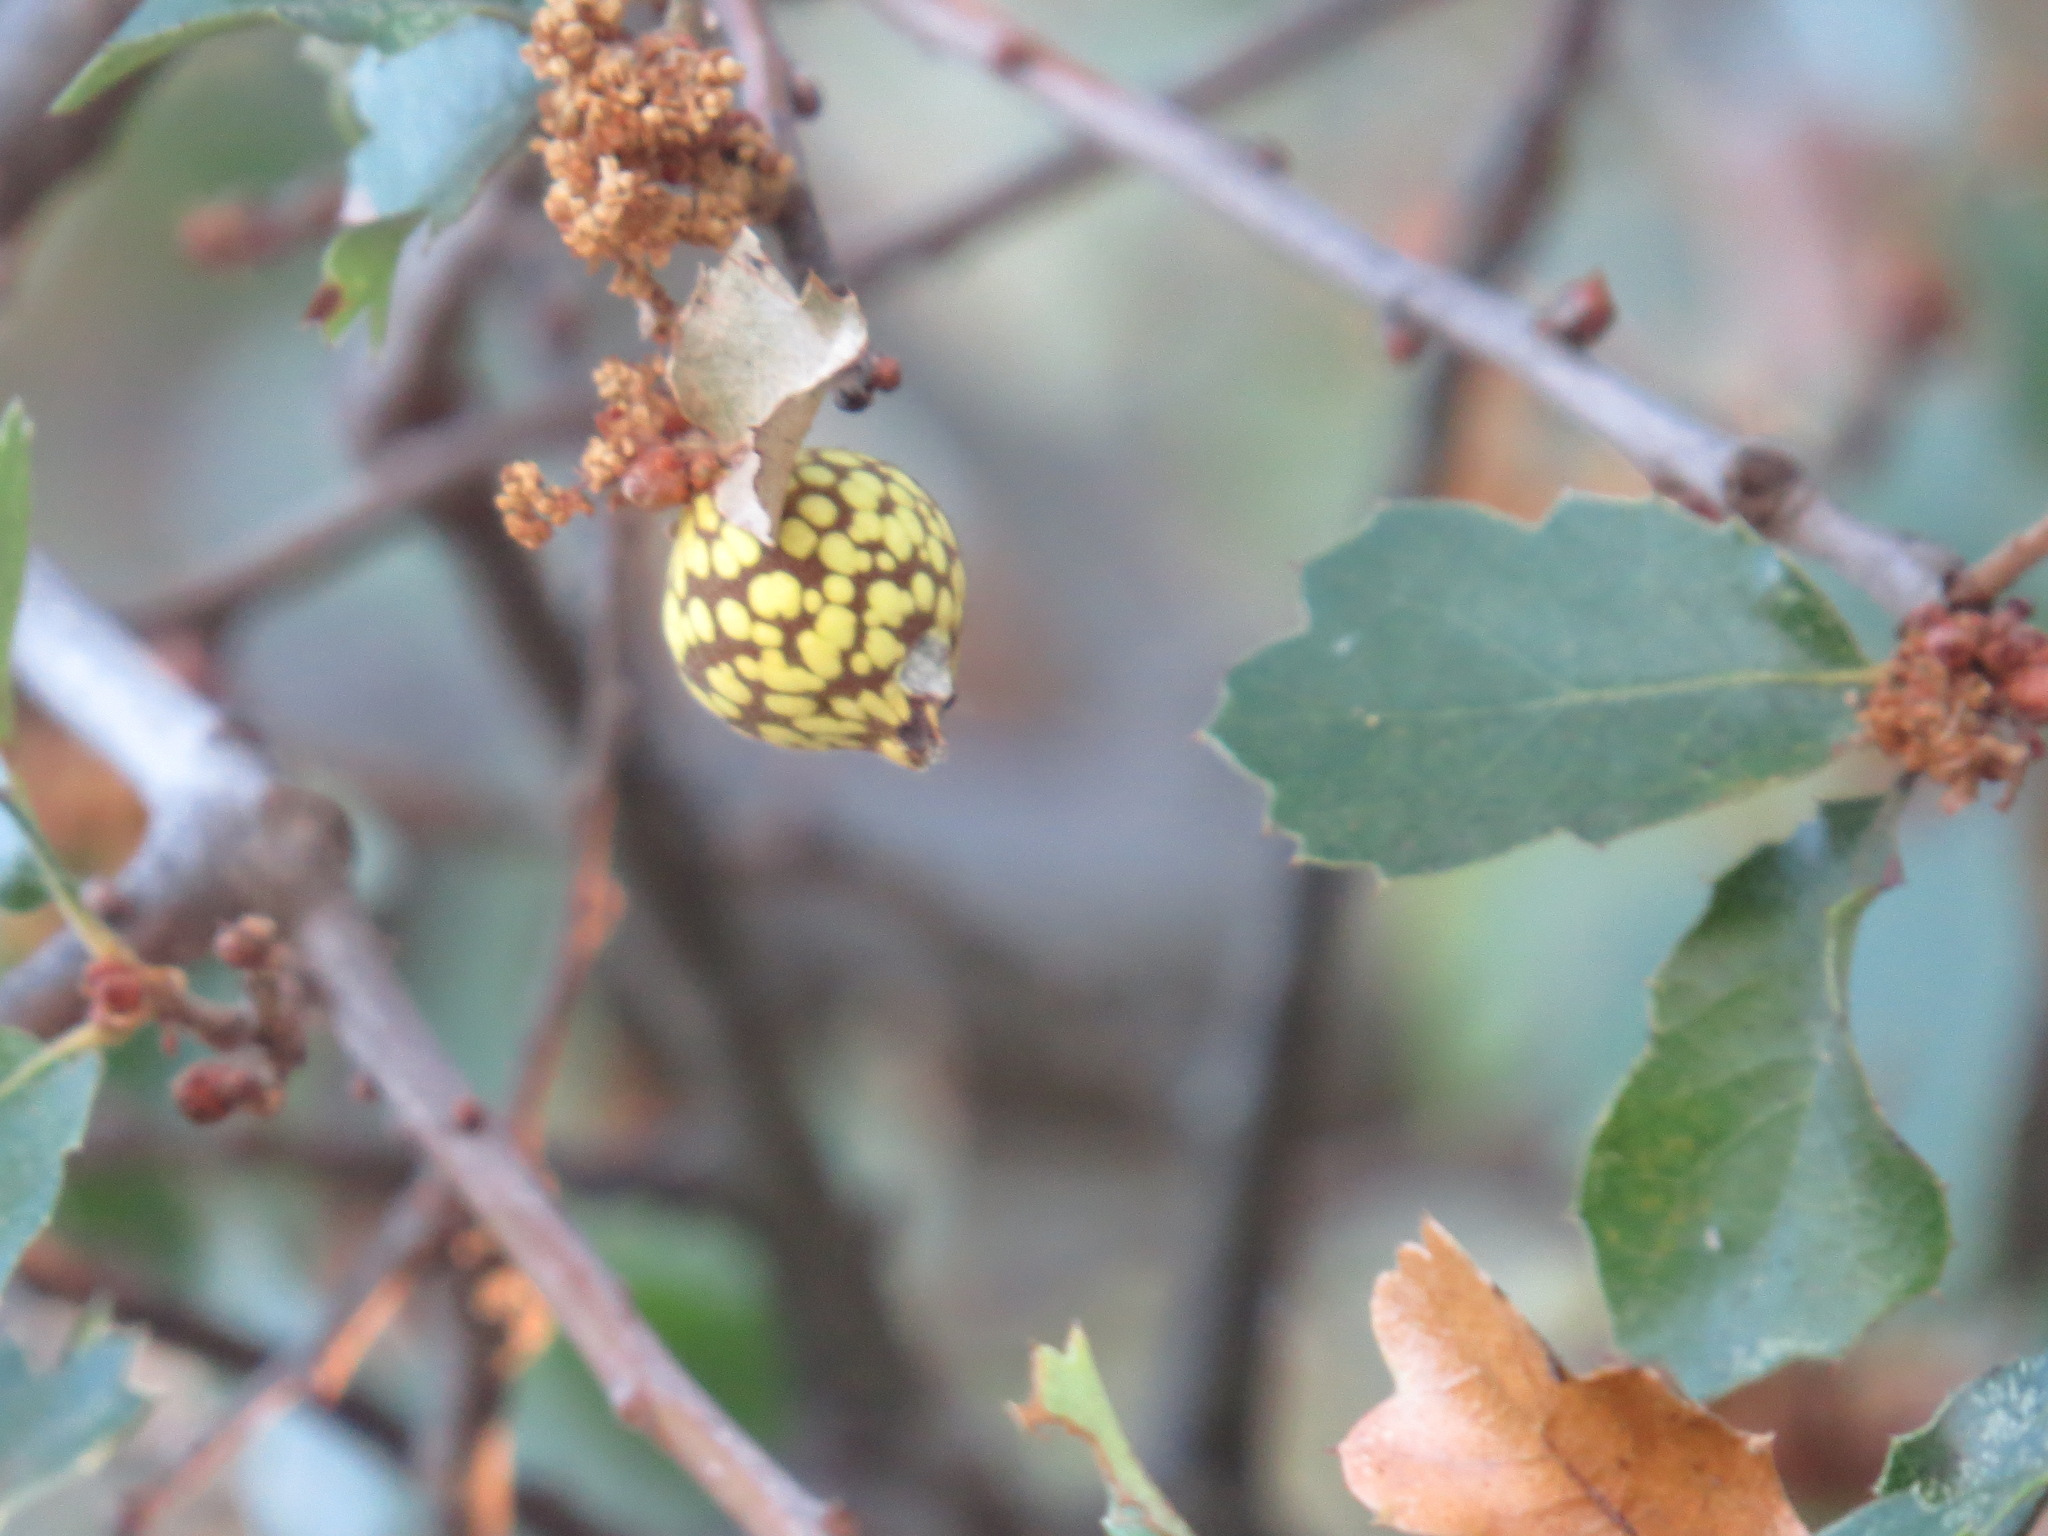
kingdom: Animalia
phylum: Arthropoda
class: Insecta
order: Hymenoptera
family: Cynipidae
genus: Burnettweldia
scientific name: Burnettweldia
